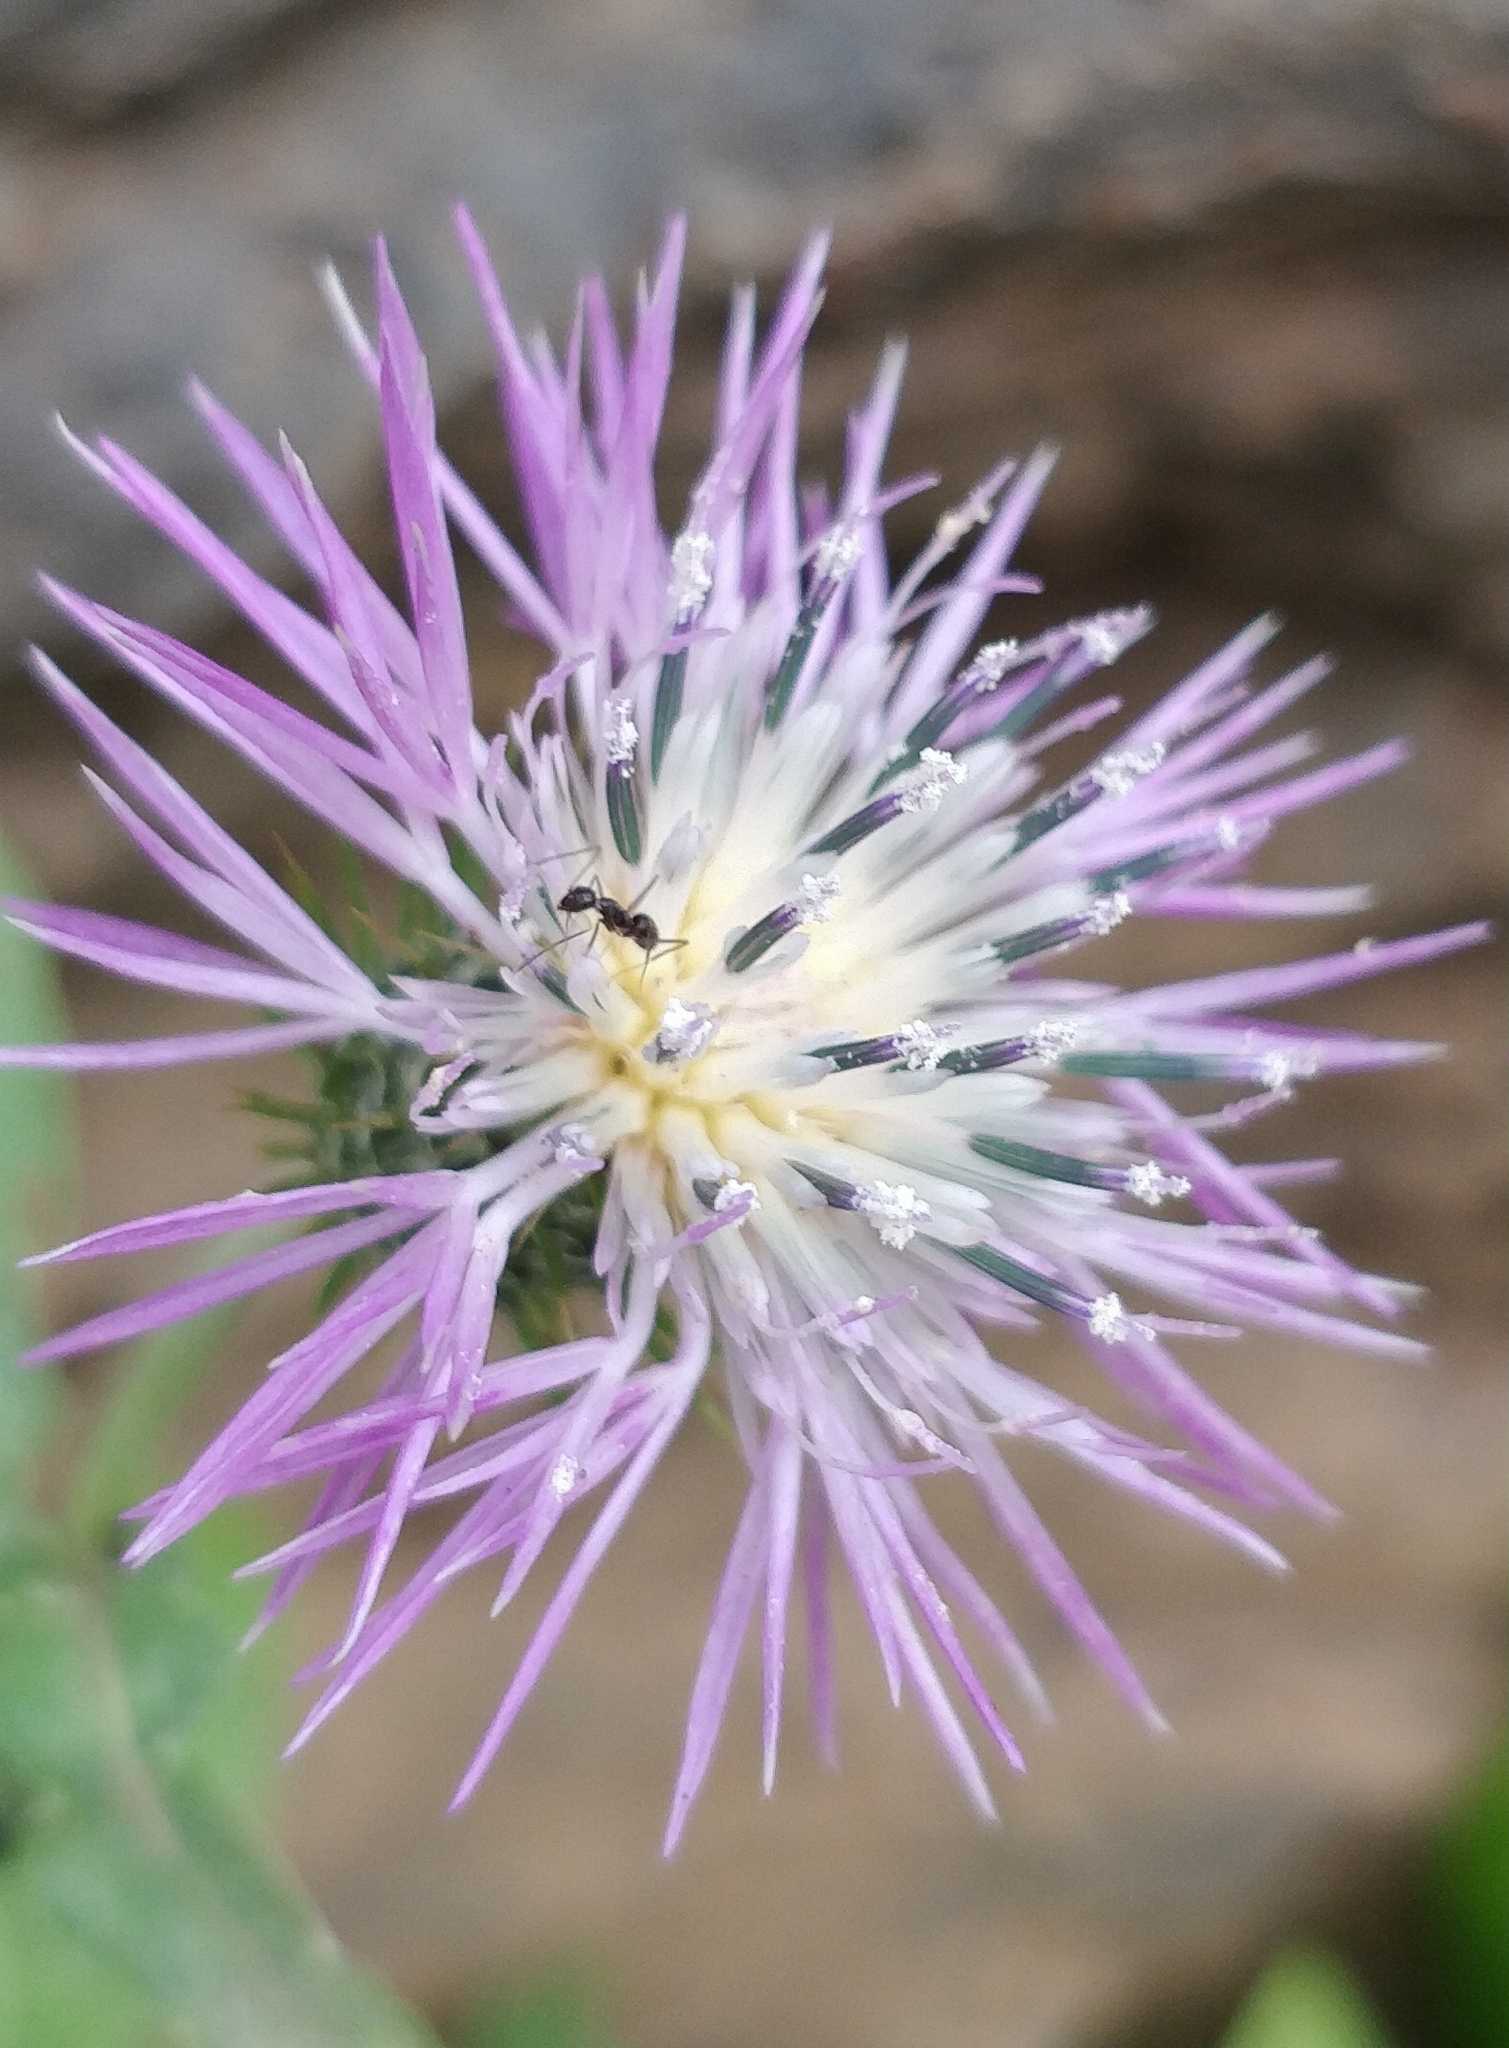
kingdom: Plantae
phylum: Tracheophyta
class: Magnoliopsida
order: Asterales
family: Asteraceae
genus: Galactites
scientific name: Galactites tomentosa
